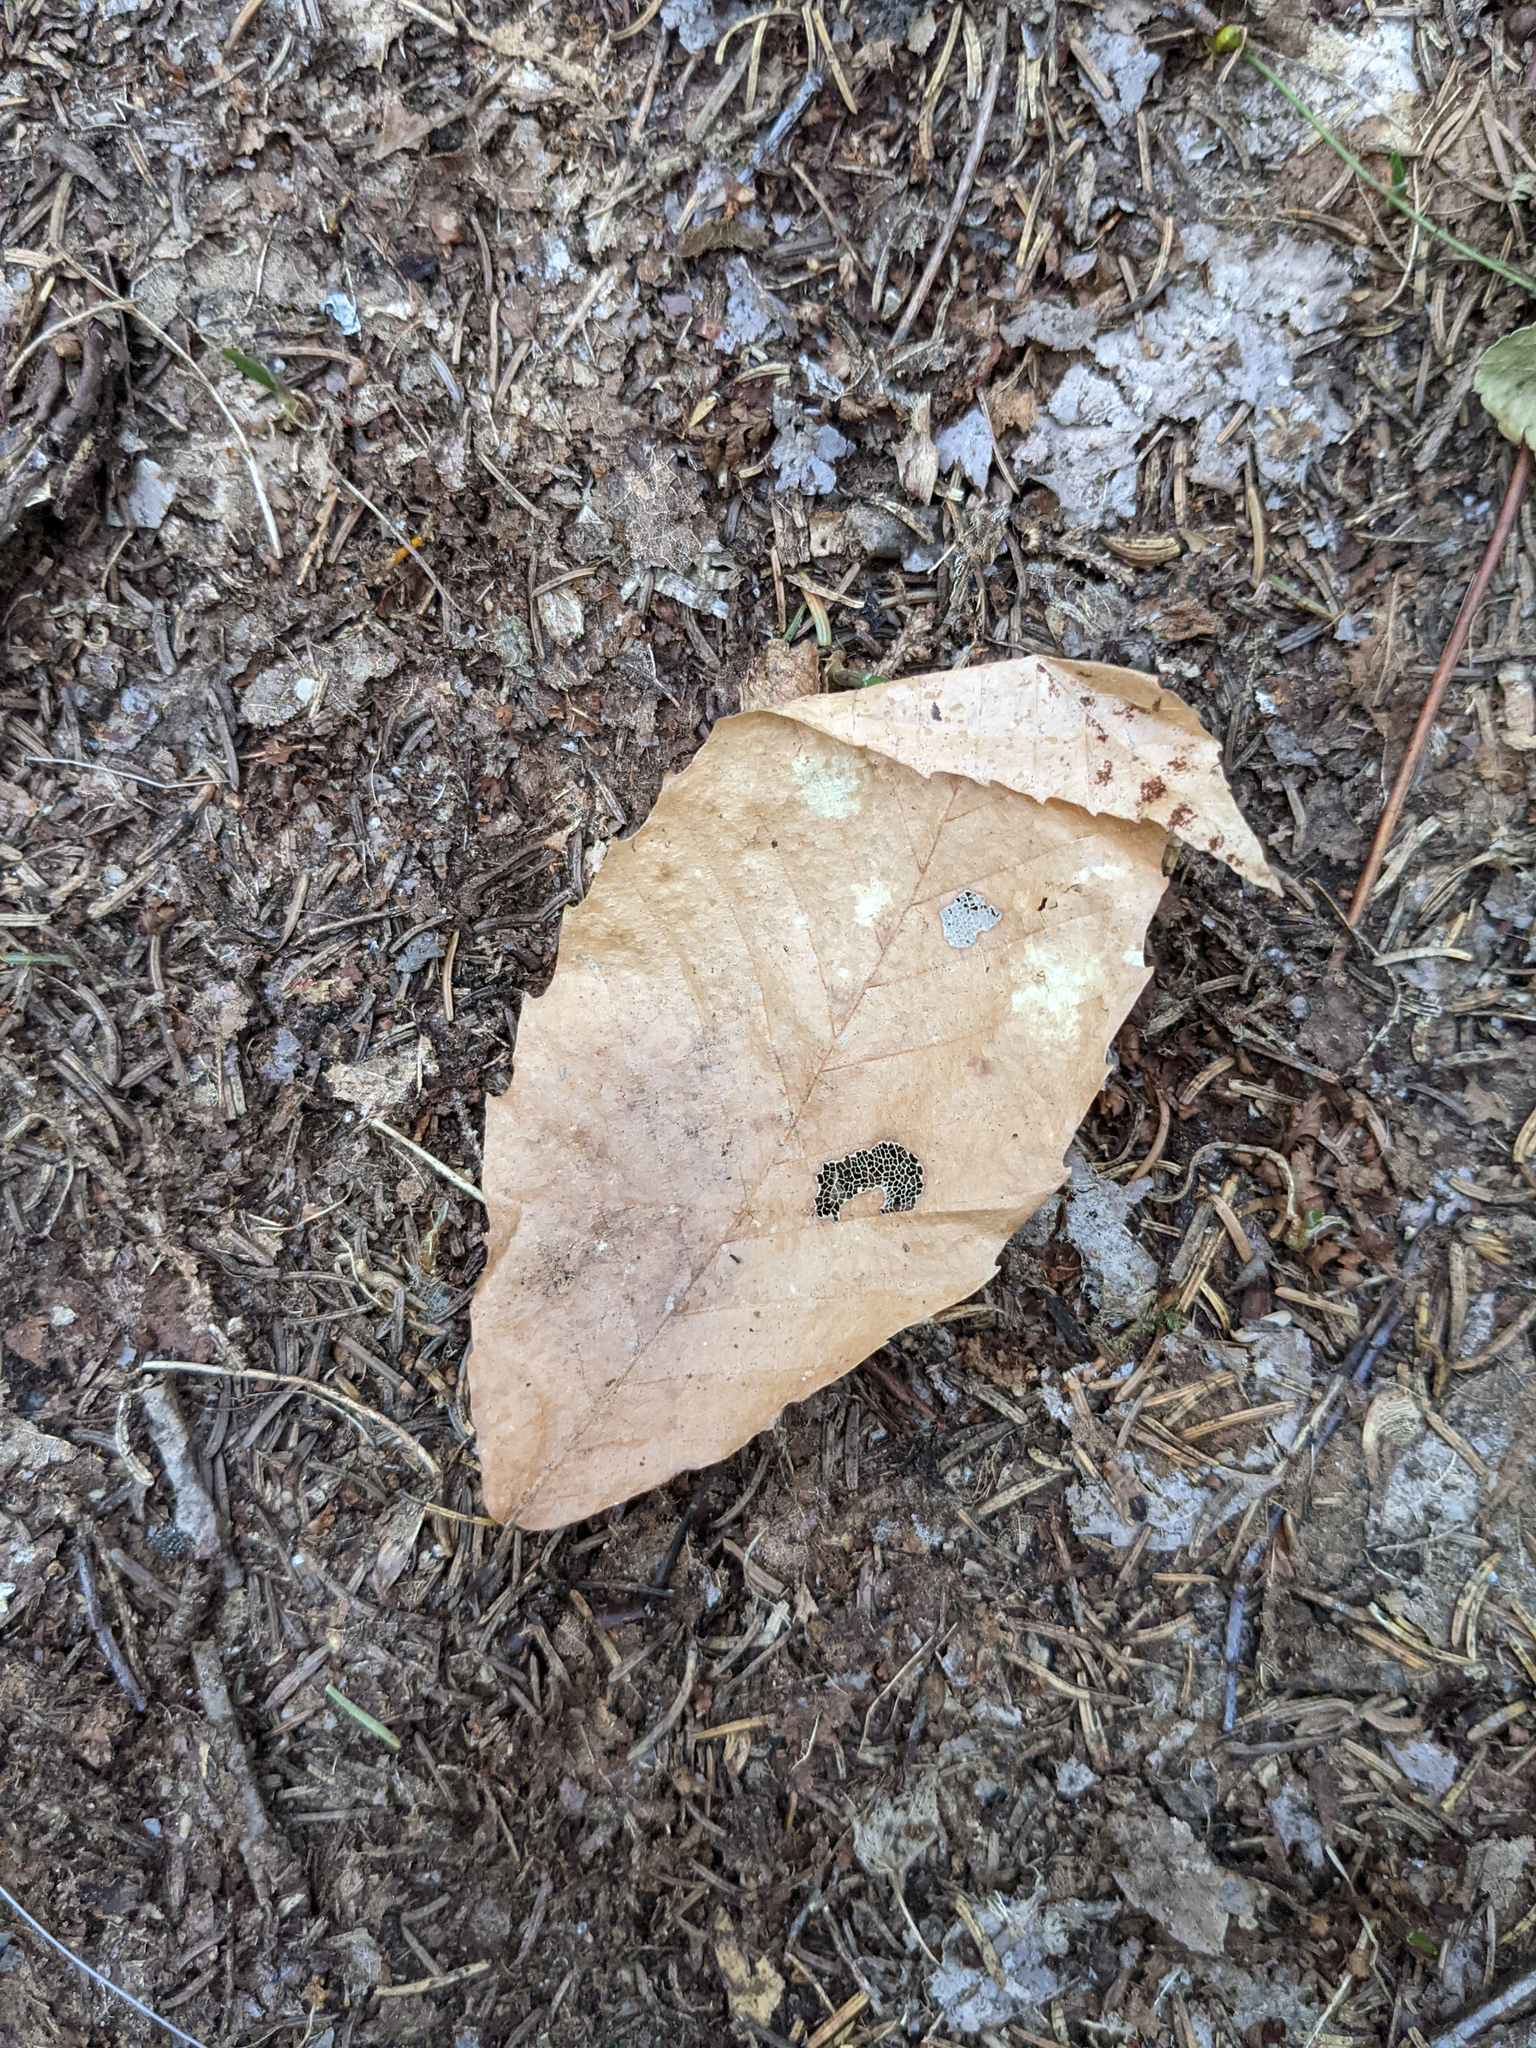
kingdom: Plantae
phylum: Tracheophyta
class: Magnoliopsida
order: Fagales
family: Fagaceae
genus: Fagus
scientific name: Fagus grandifolia
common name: American beech
